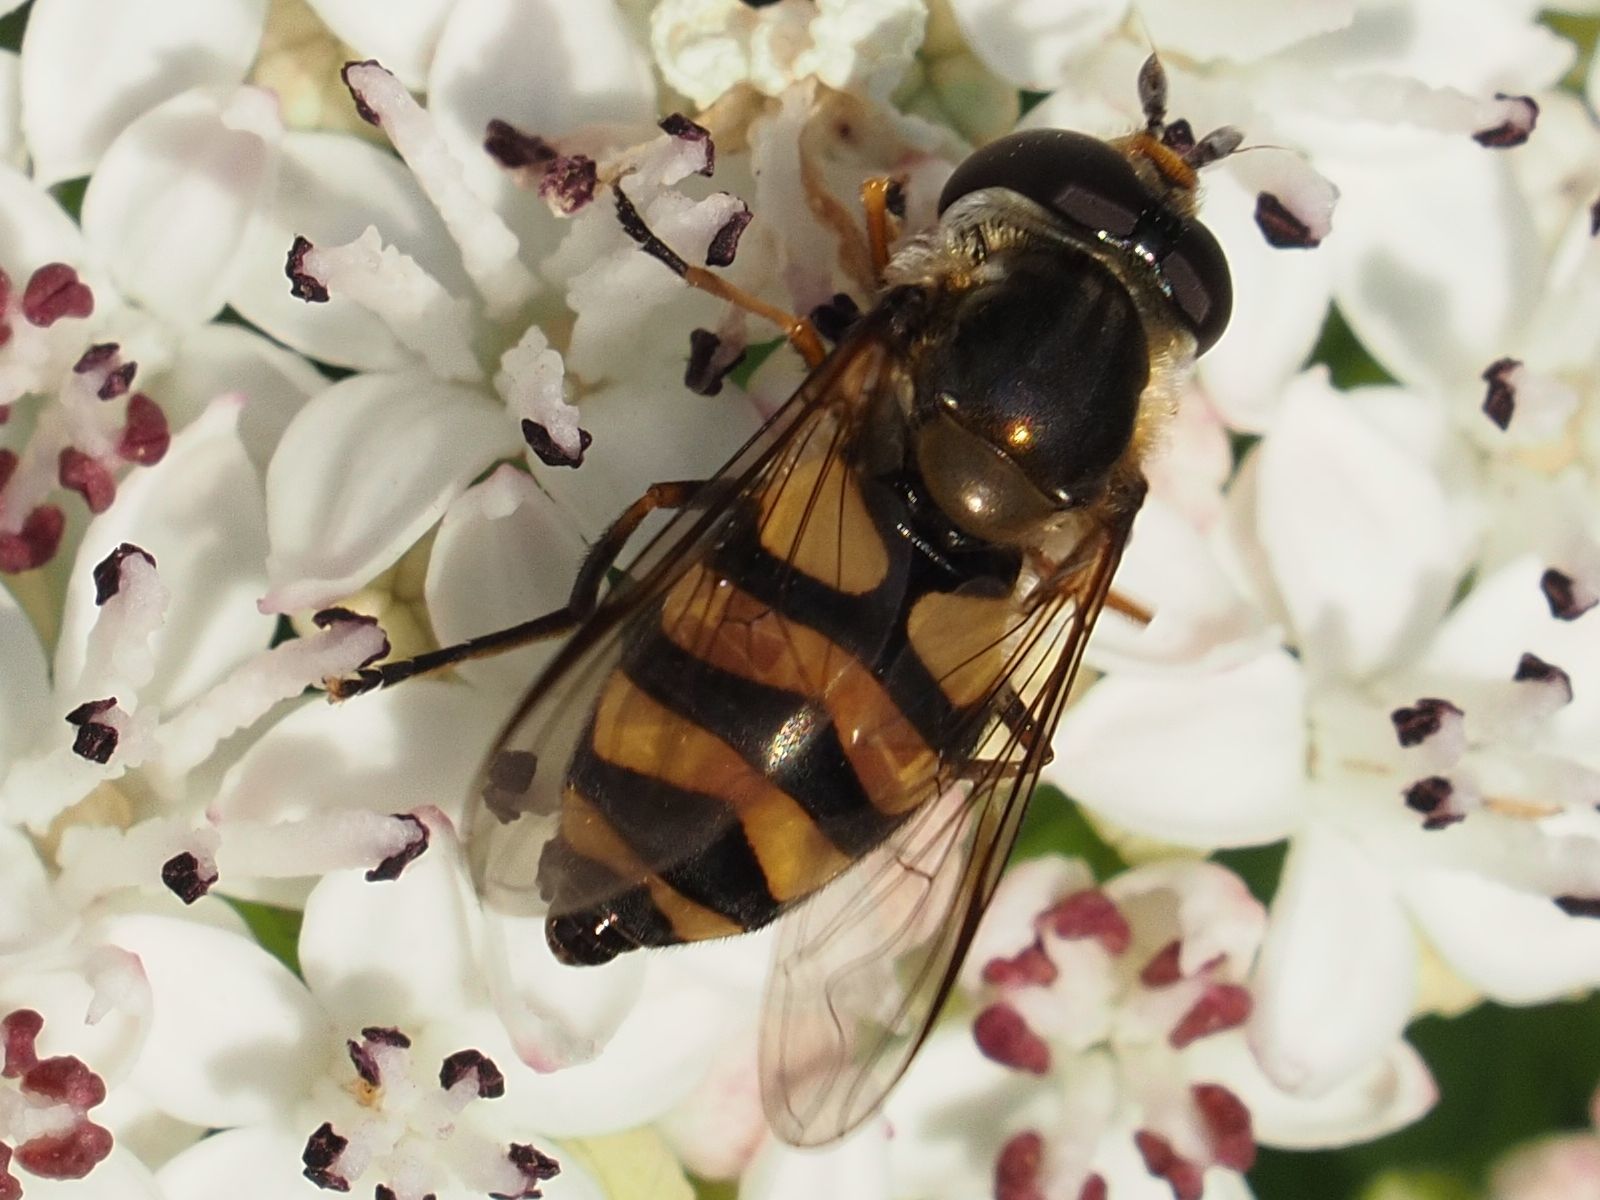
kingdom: Animalia
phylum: Arthropoda
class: Insecta
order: Diptera
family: Syrphidae
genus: Didea
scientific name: Didea fasciata
